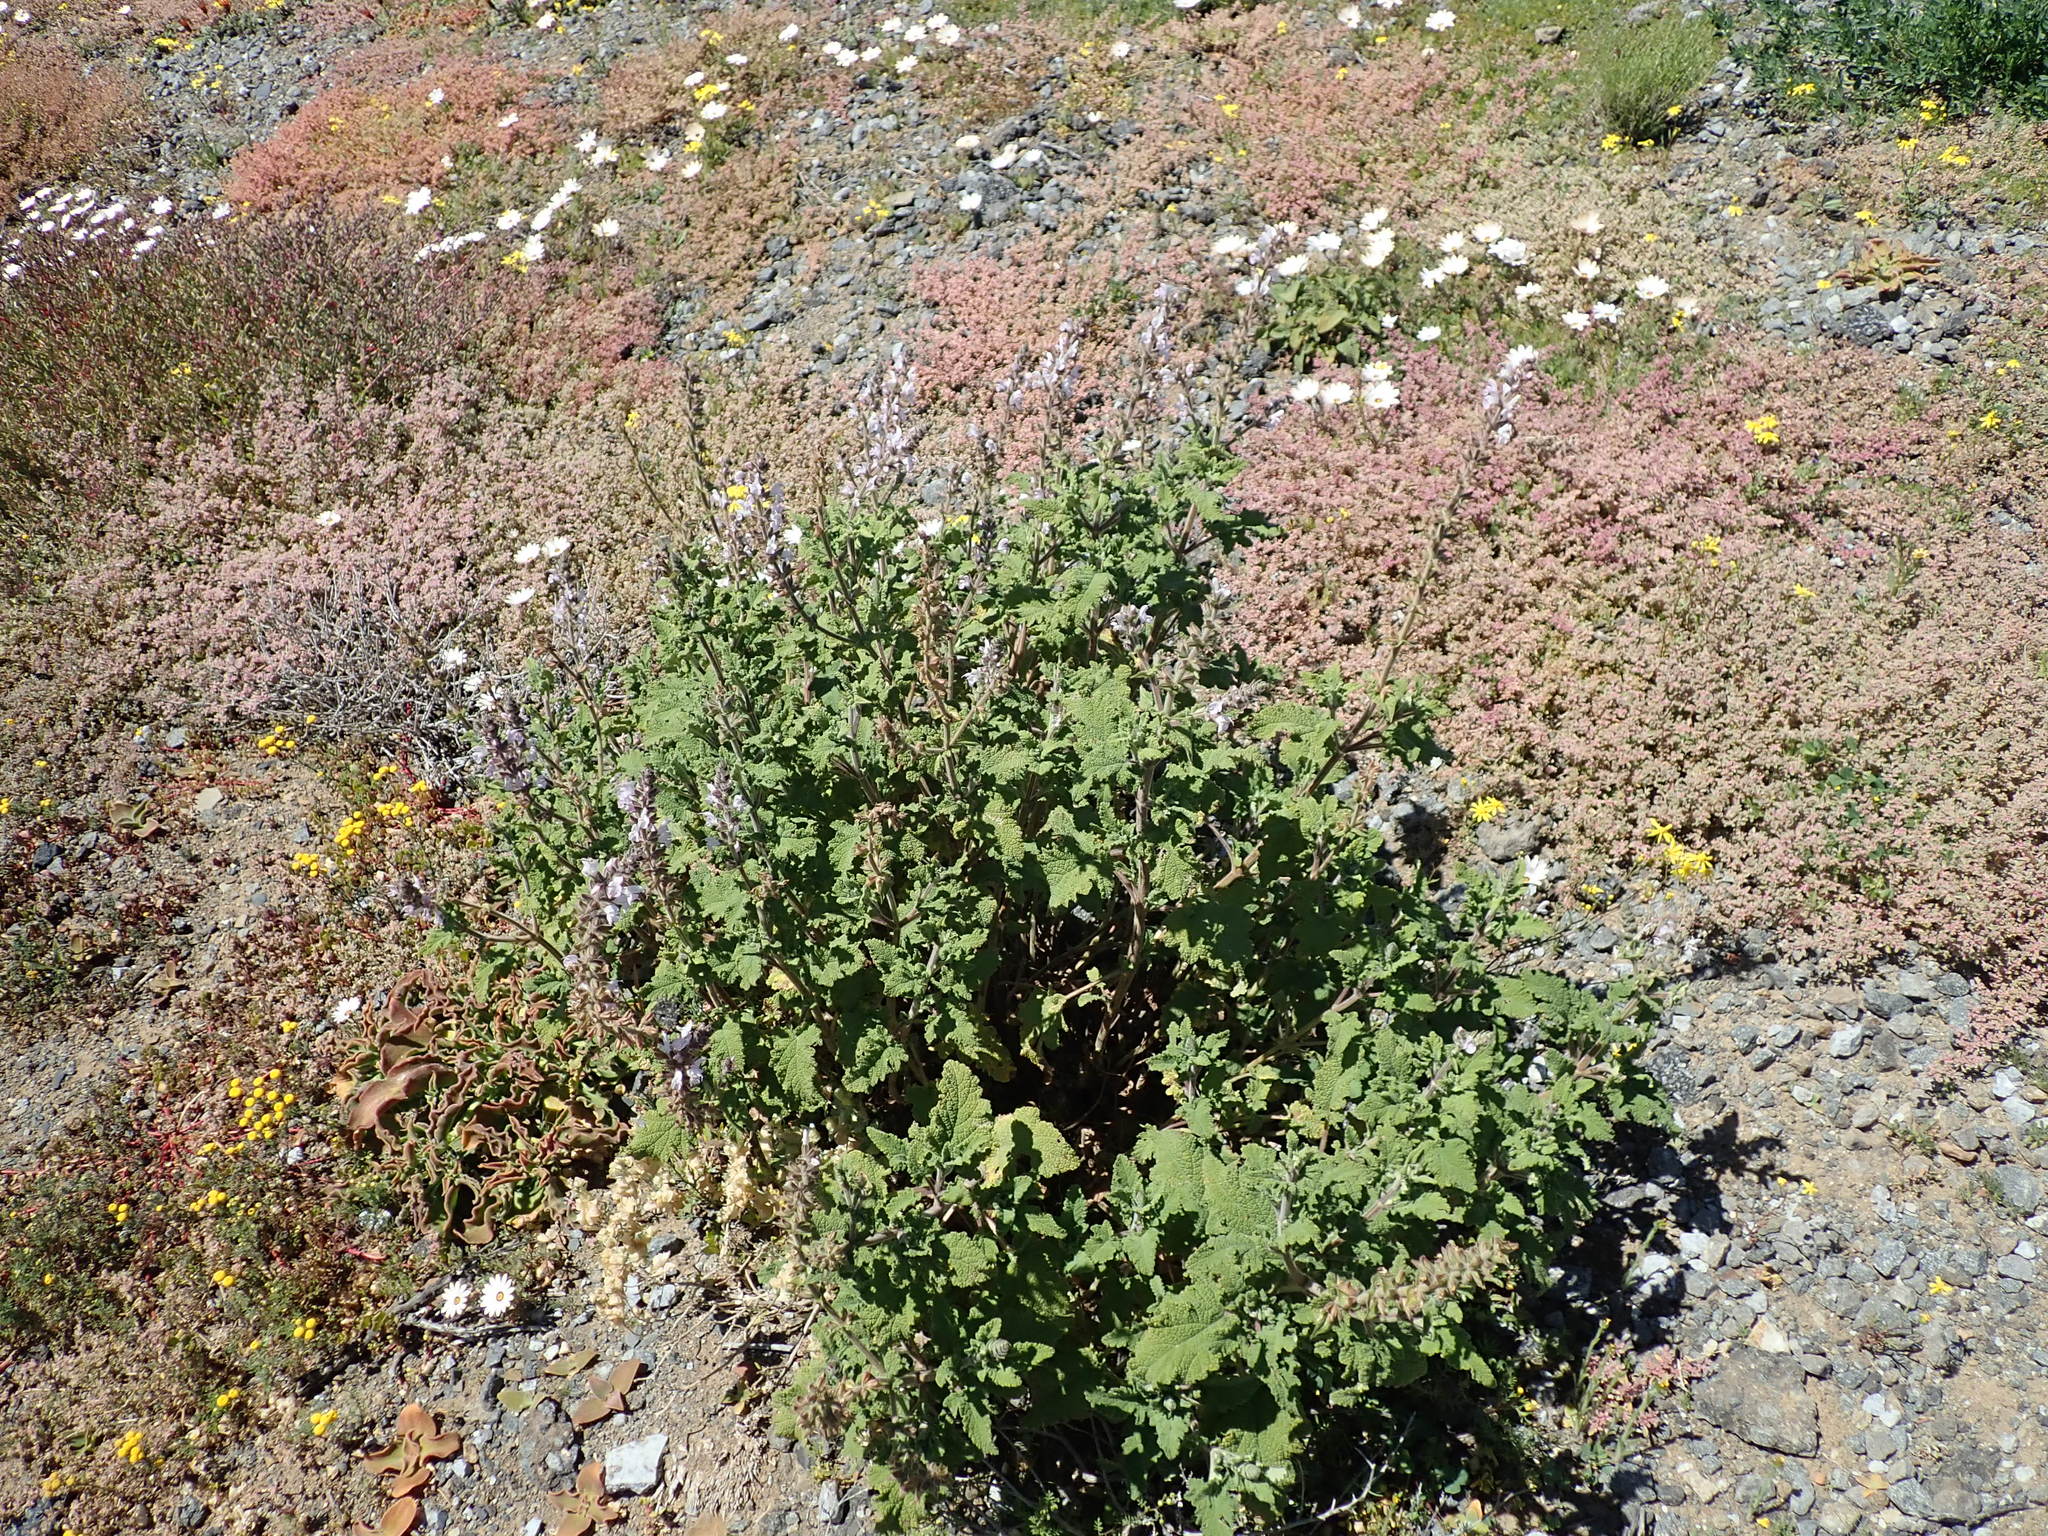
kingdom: Plantae
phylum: Tracheophyta
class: Magnoliopsida
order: Lamiales
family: Lamiaceae
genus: Salvia
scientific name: Salvia disermas
